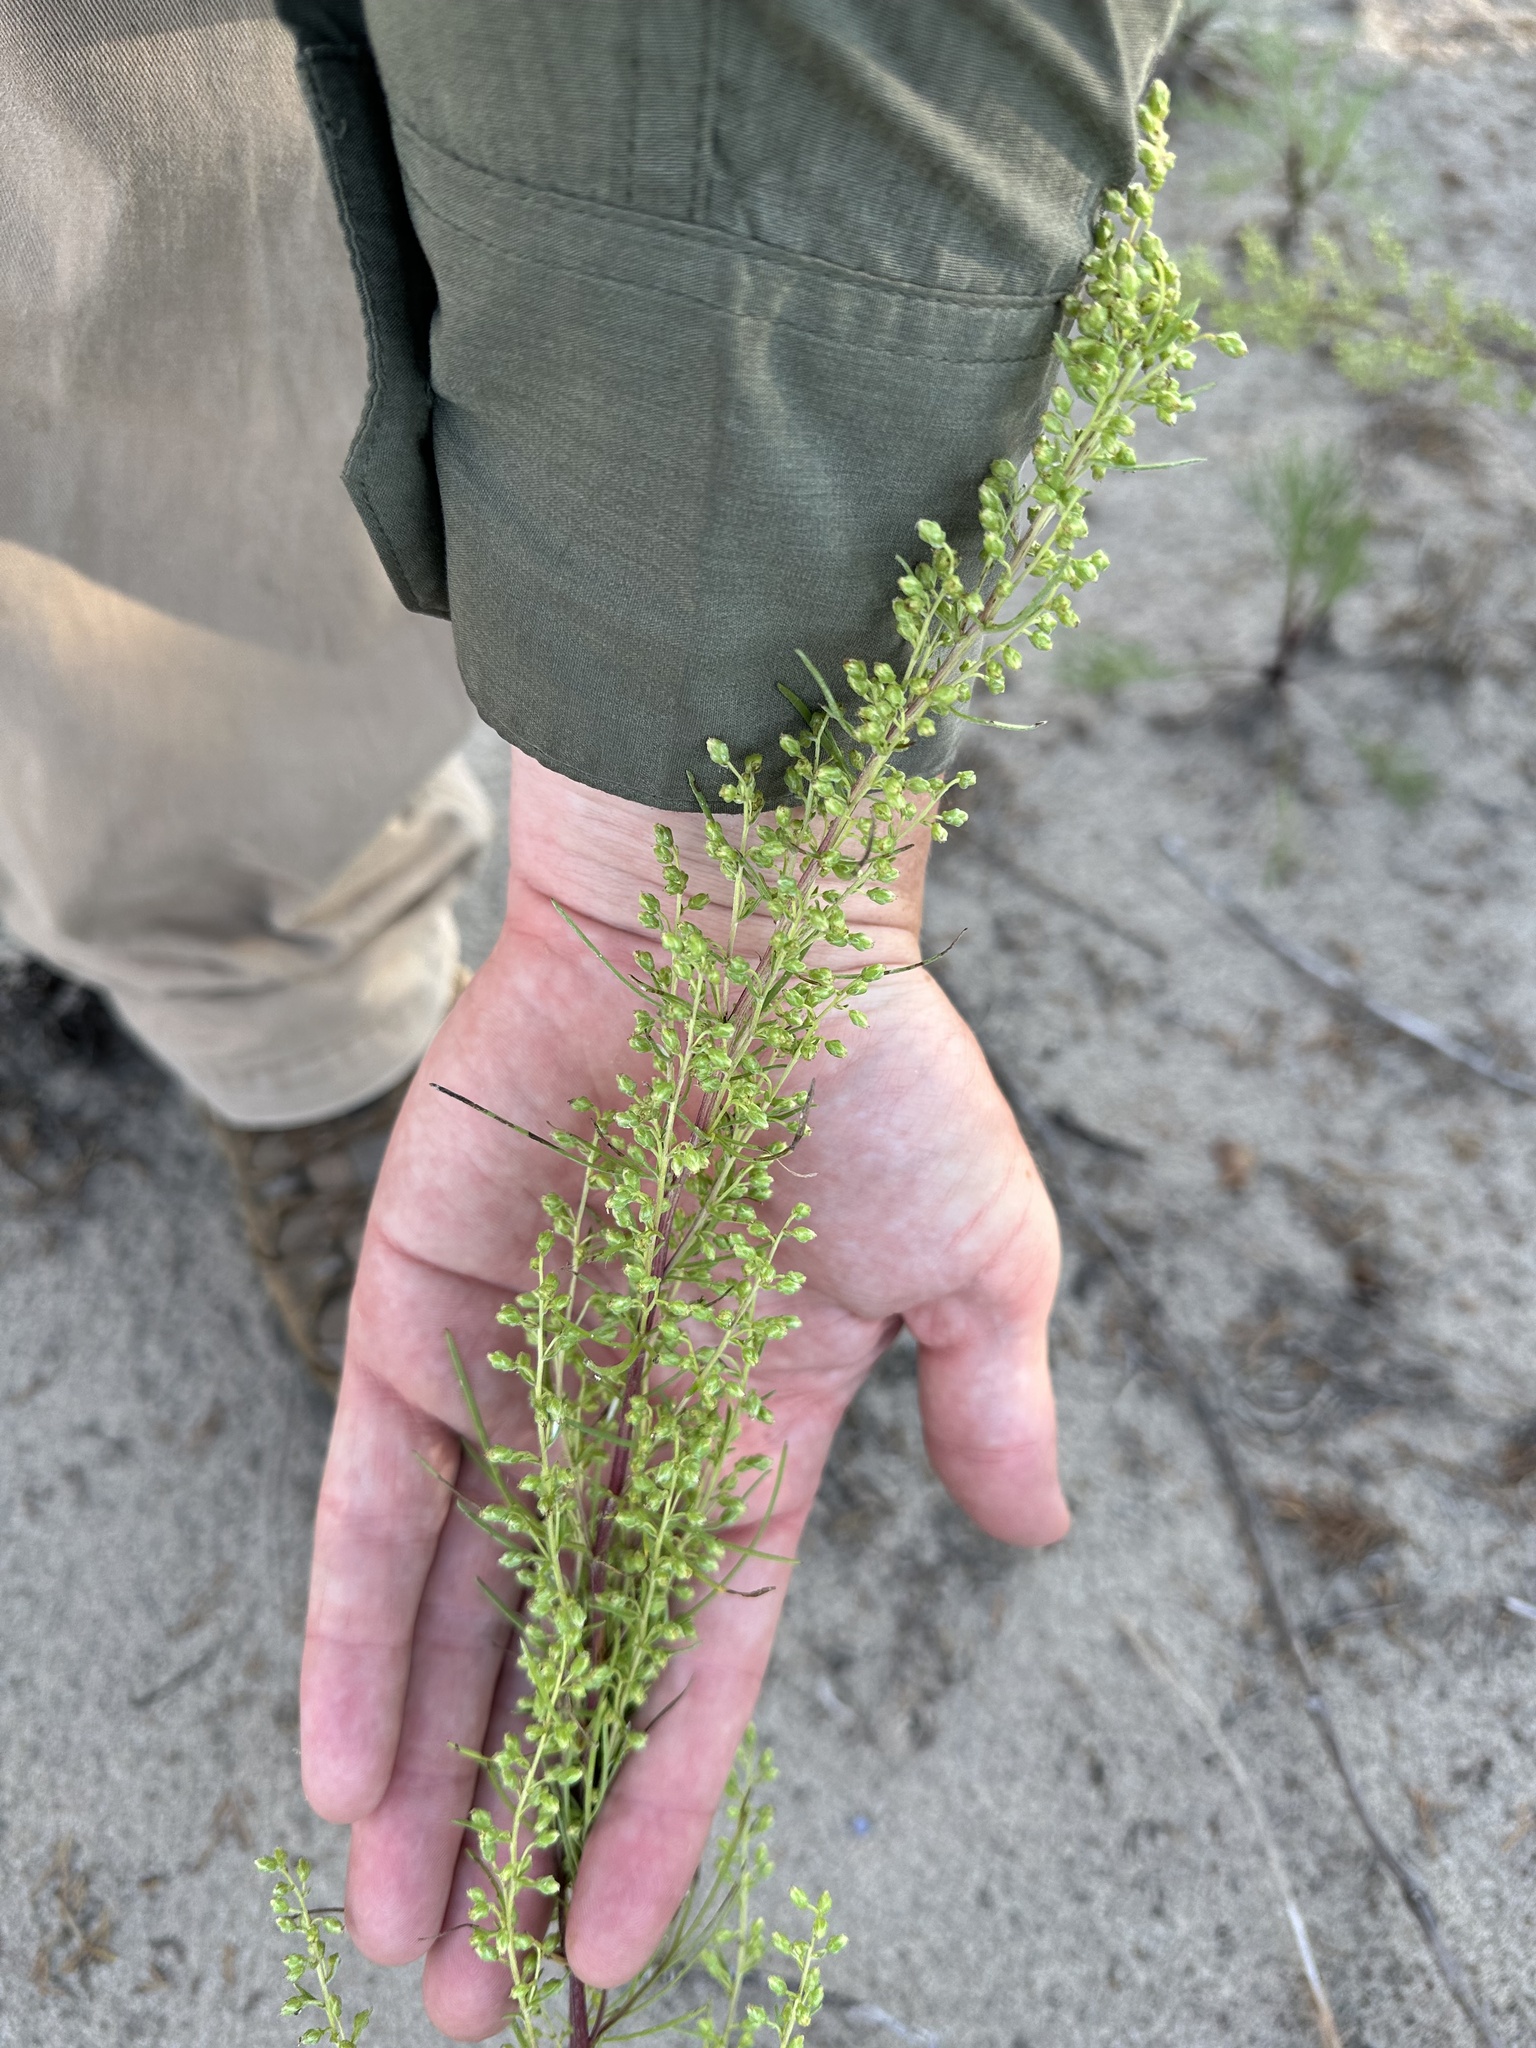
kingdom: Plantae
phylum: Tracheophyta
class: Magnoliopsida
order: Asterales
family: Asteraceae
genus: Artemisia
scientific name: Artemisia campestris
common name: Field wormwood
